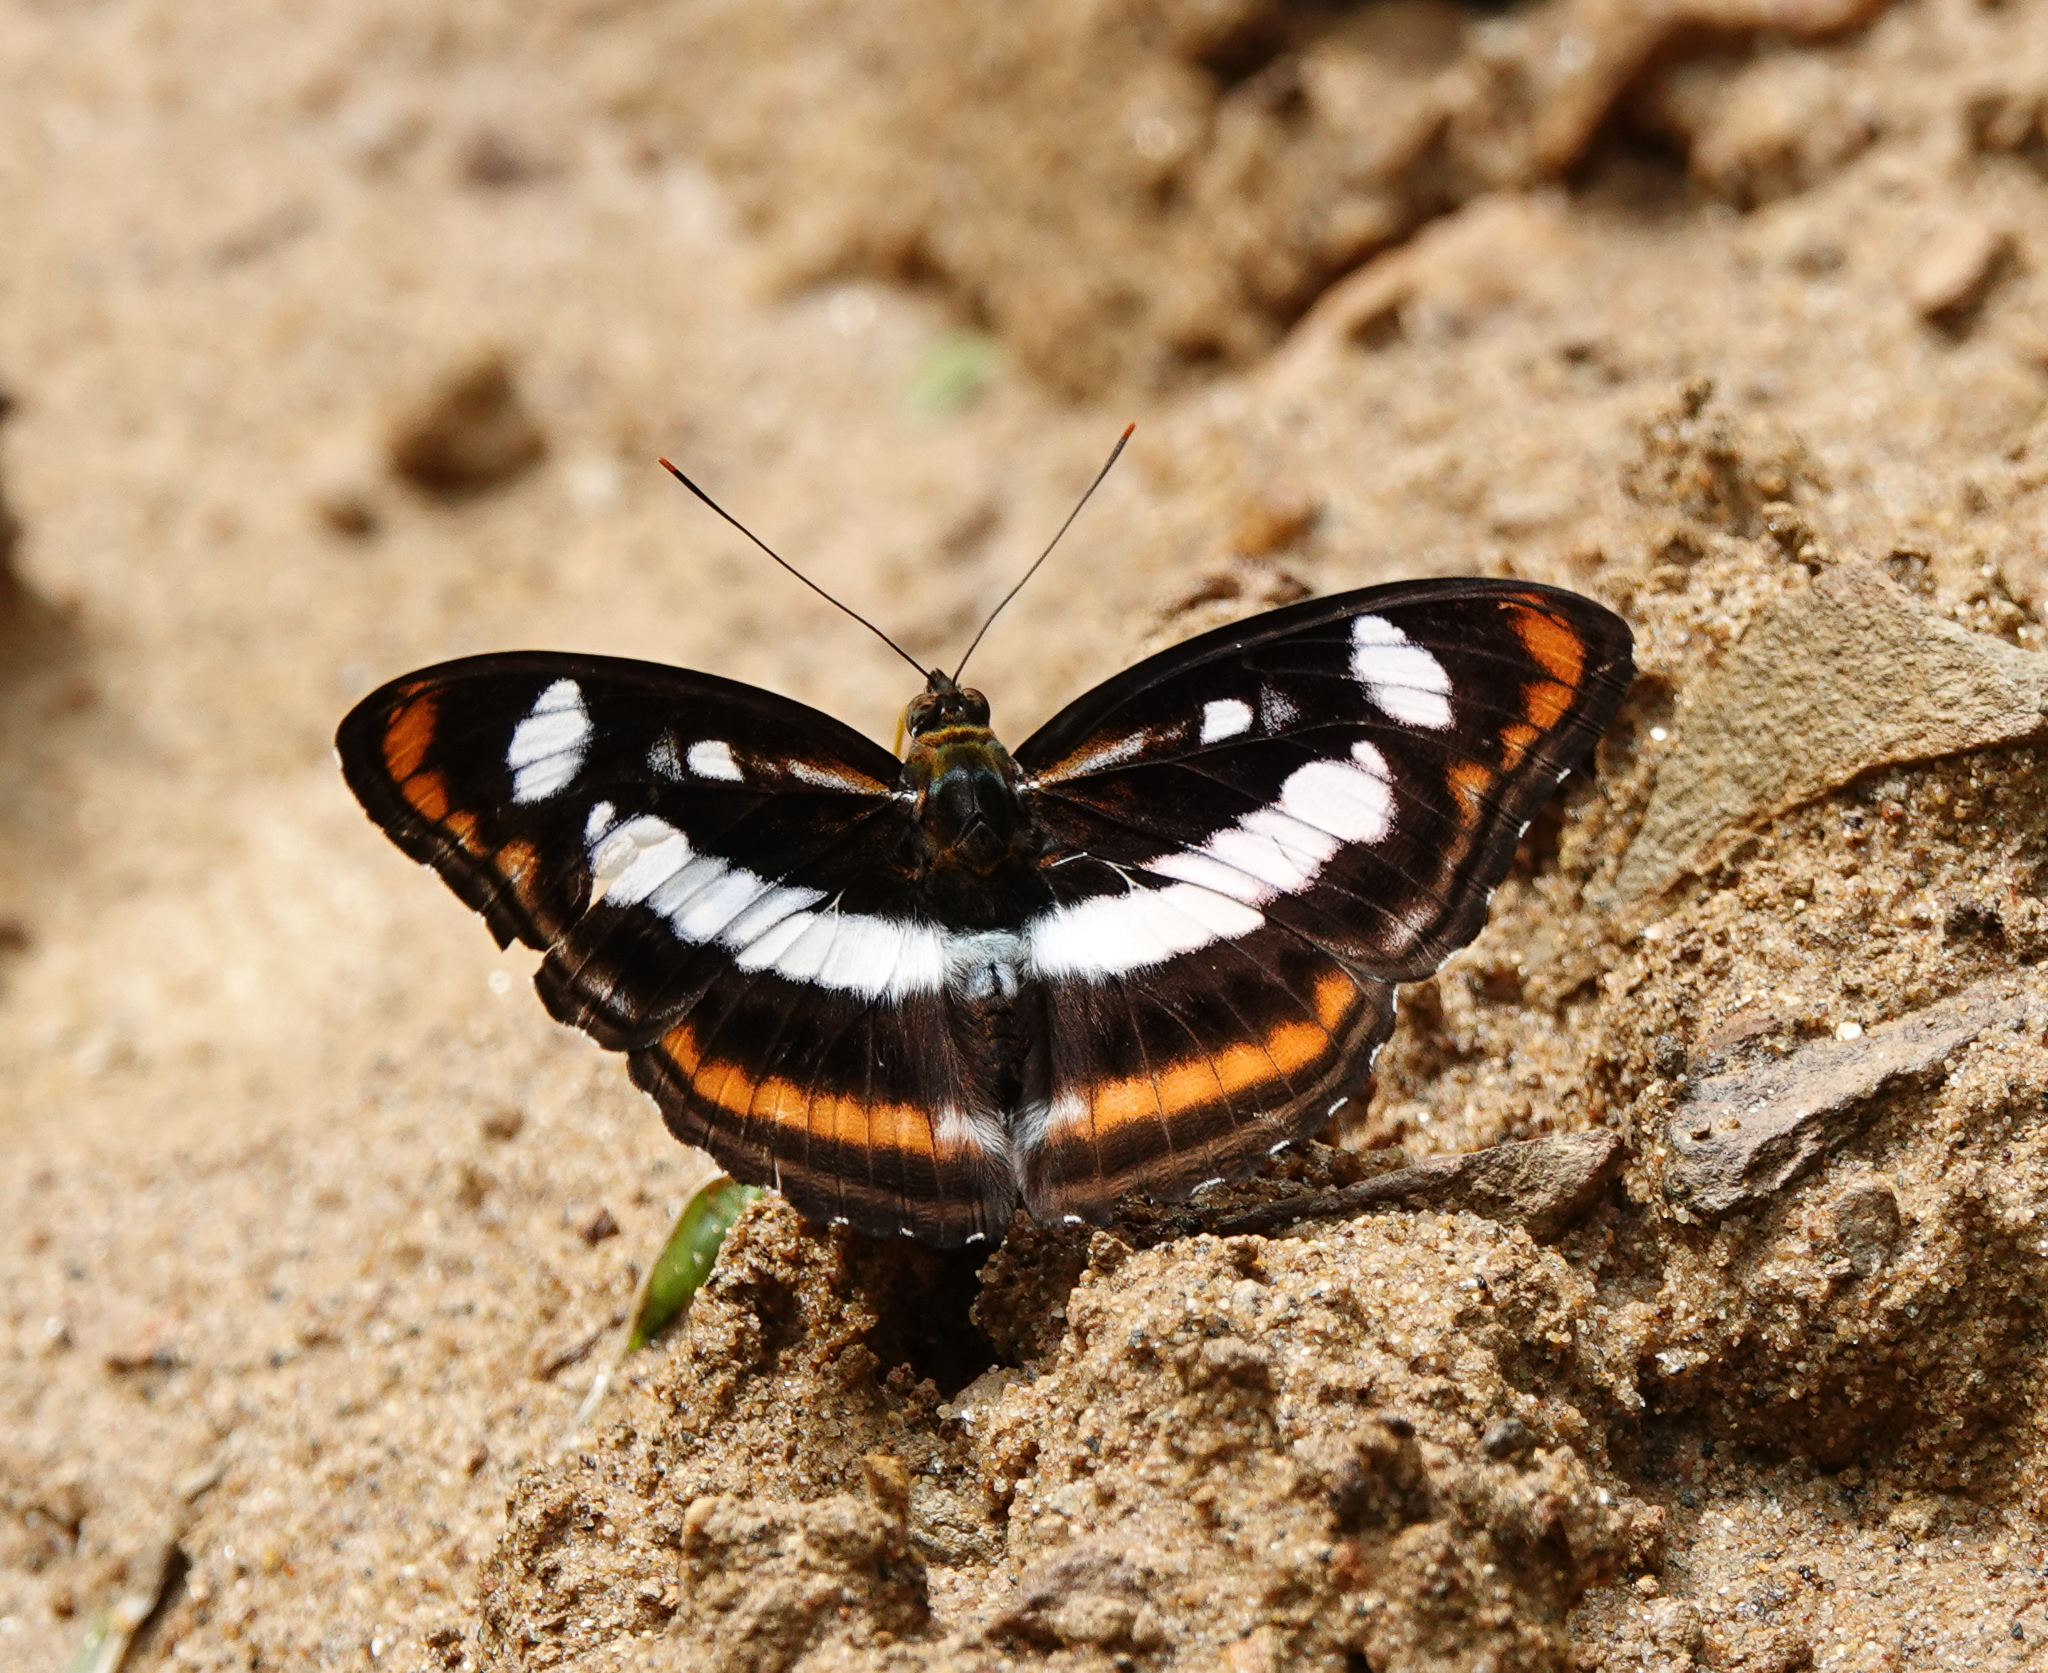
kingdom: Animalia
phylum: Arthropoda
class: Insecta
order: Lepidoptera
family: Nymphalidae
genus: Parathyma
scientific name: Parathyma nefte
